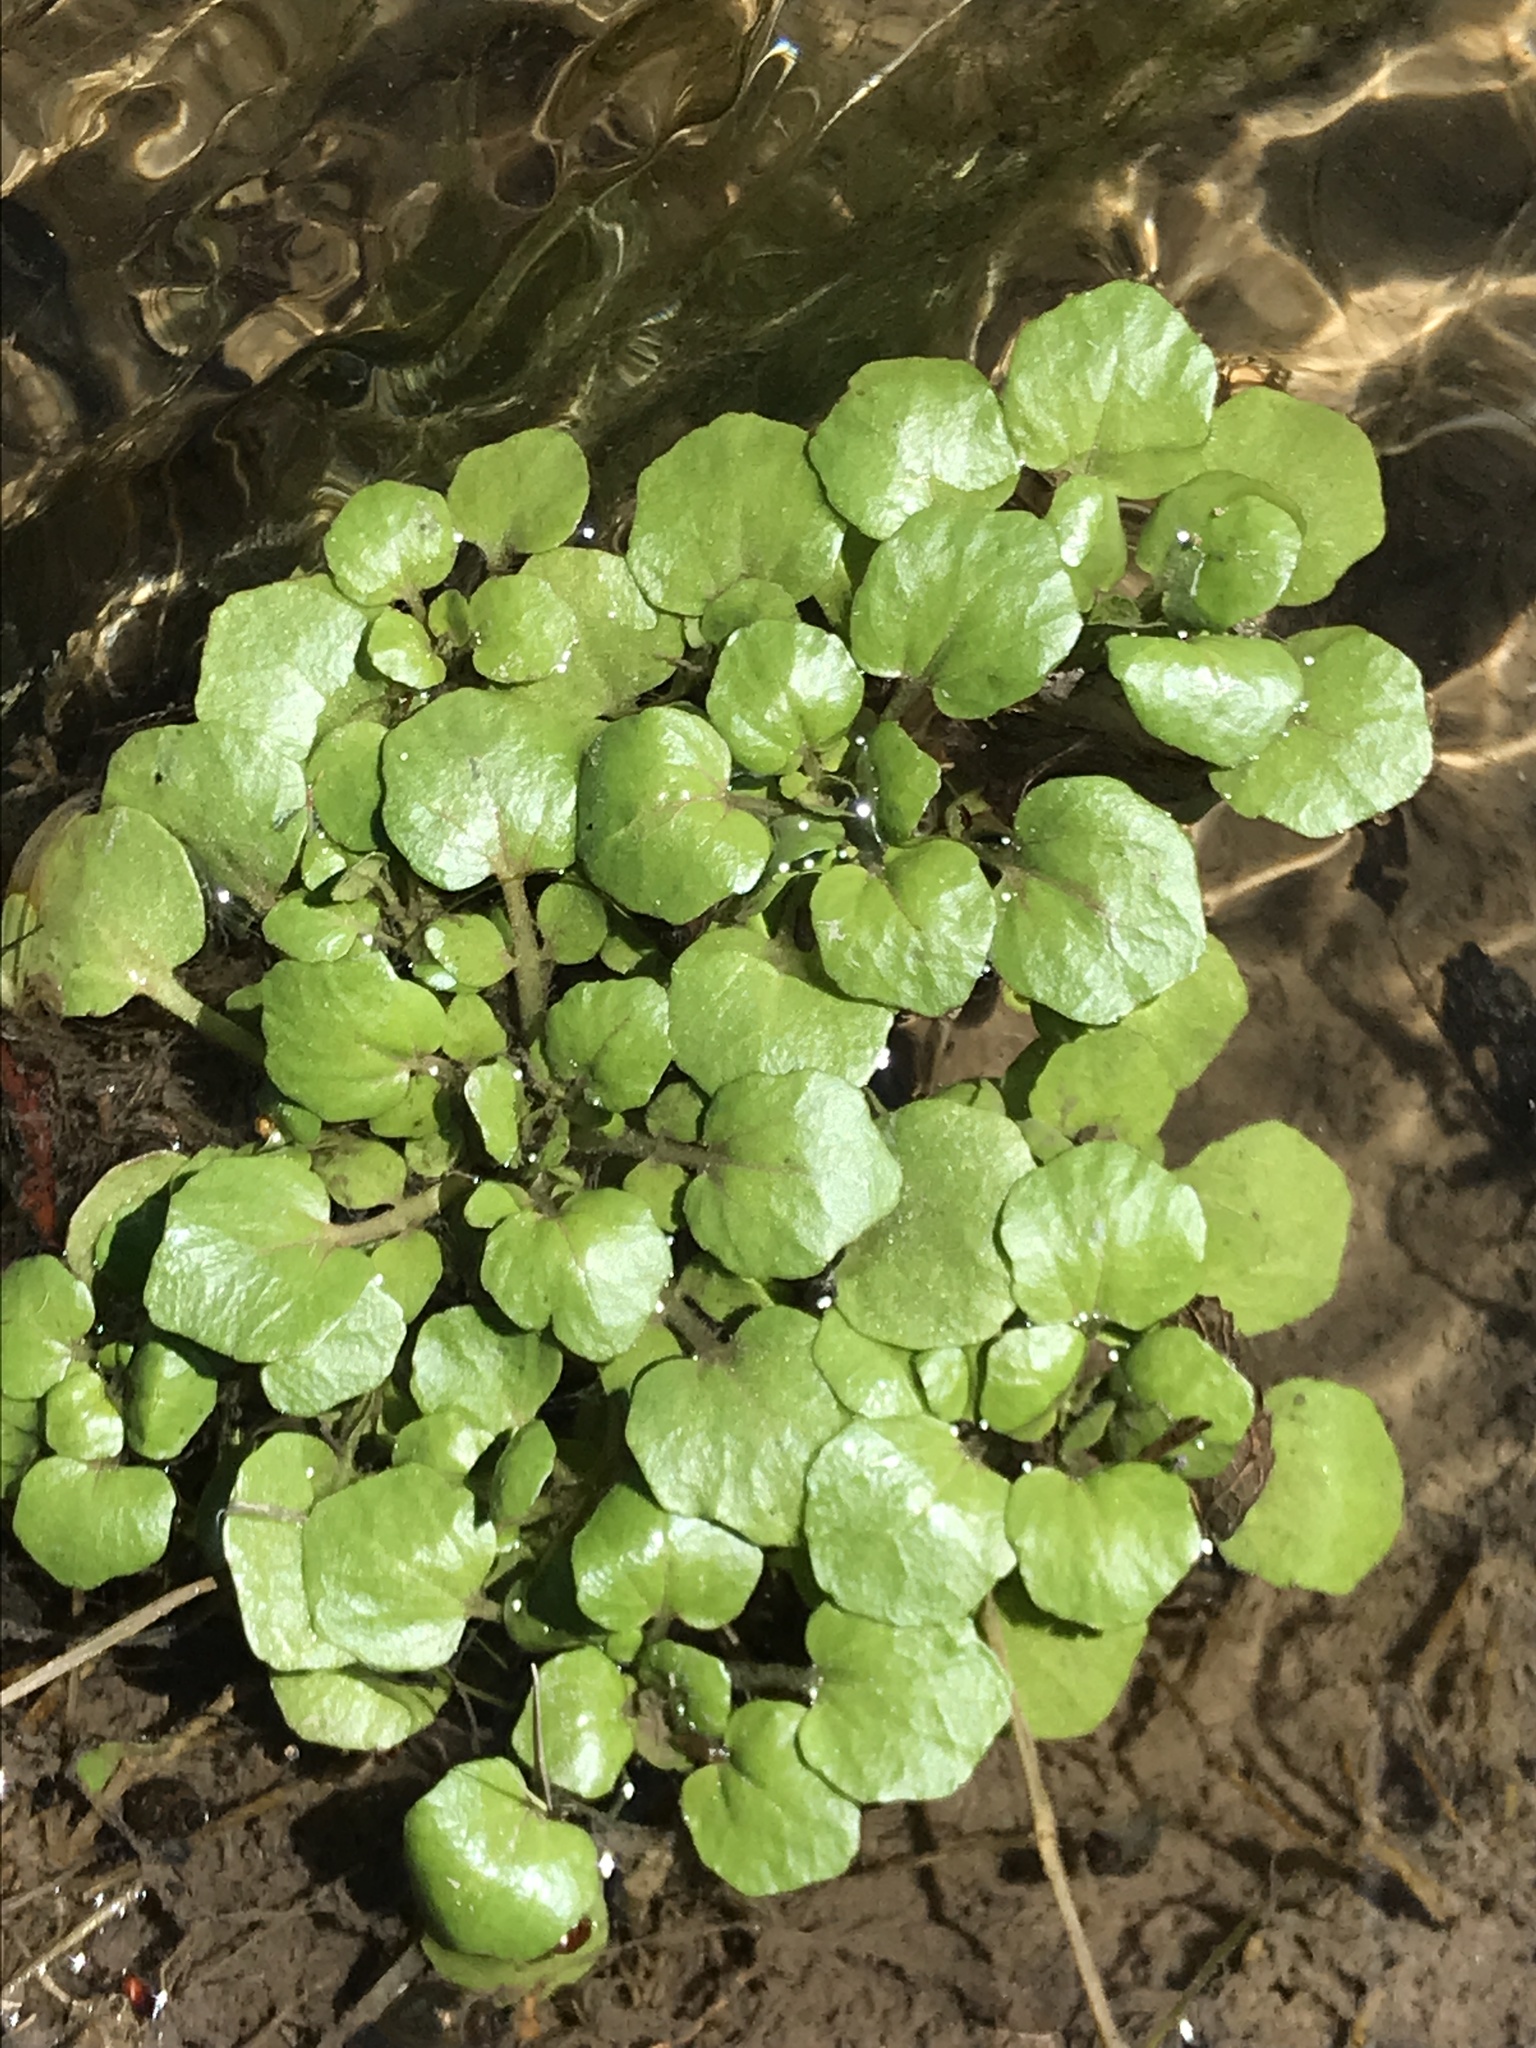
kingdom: Plantae
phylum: Tracheophyta
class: Magnoliopsida
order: Brassicales
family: Brassicaceae
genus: Nasturtium
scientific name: Nasturtium officinale
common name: Watercress
